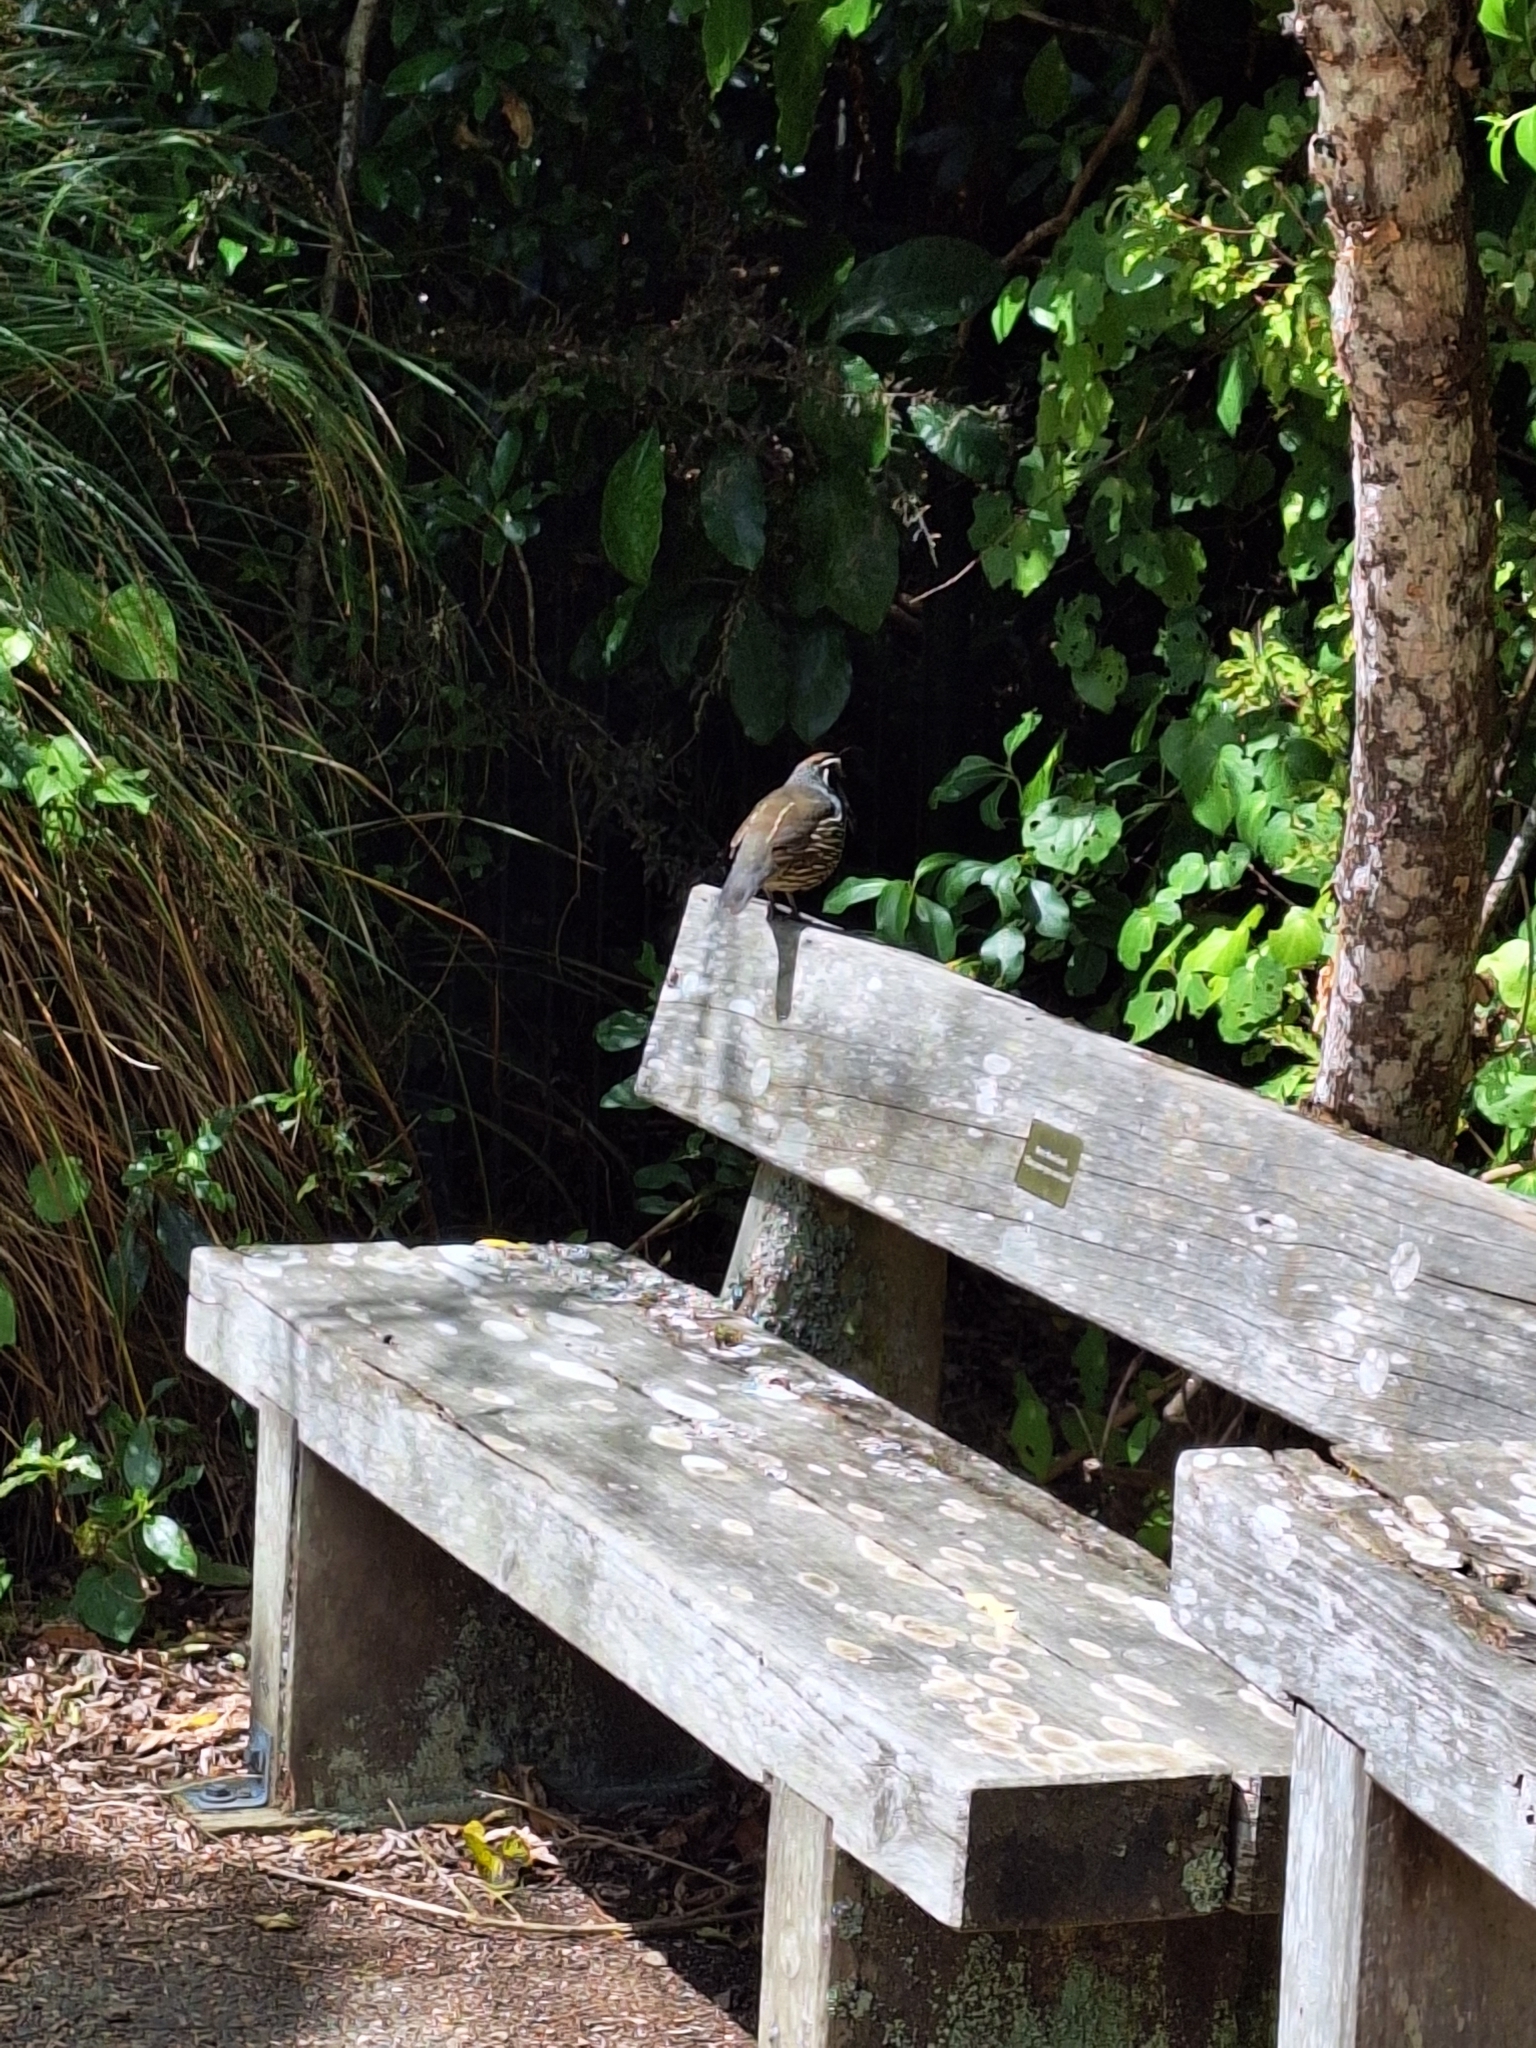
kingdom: Animalia
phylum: Chordata
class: Aves
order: Galliformes
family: Odontophoridae
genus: Callipepla
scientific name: Callipepla californica
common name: California quail
